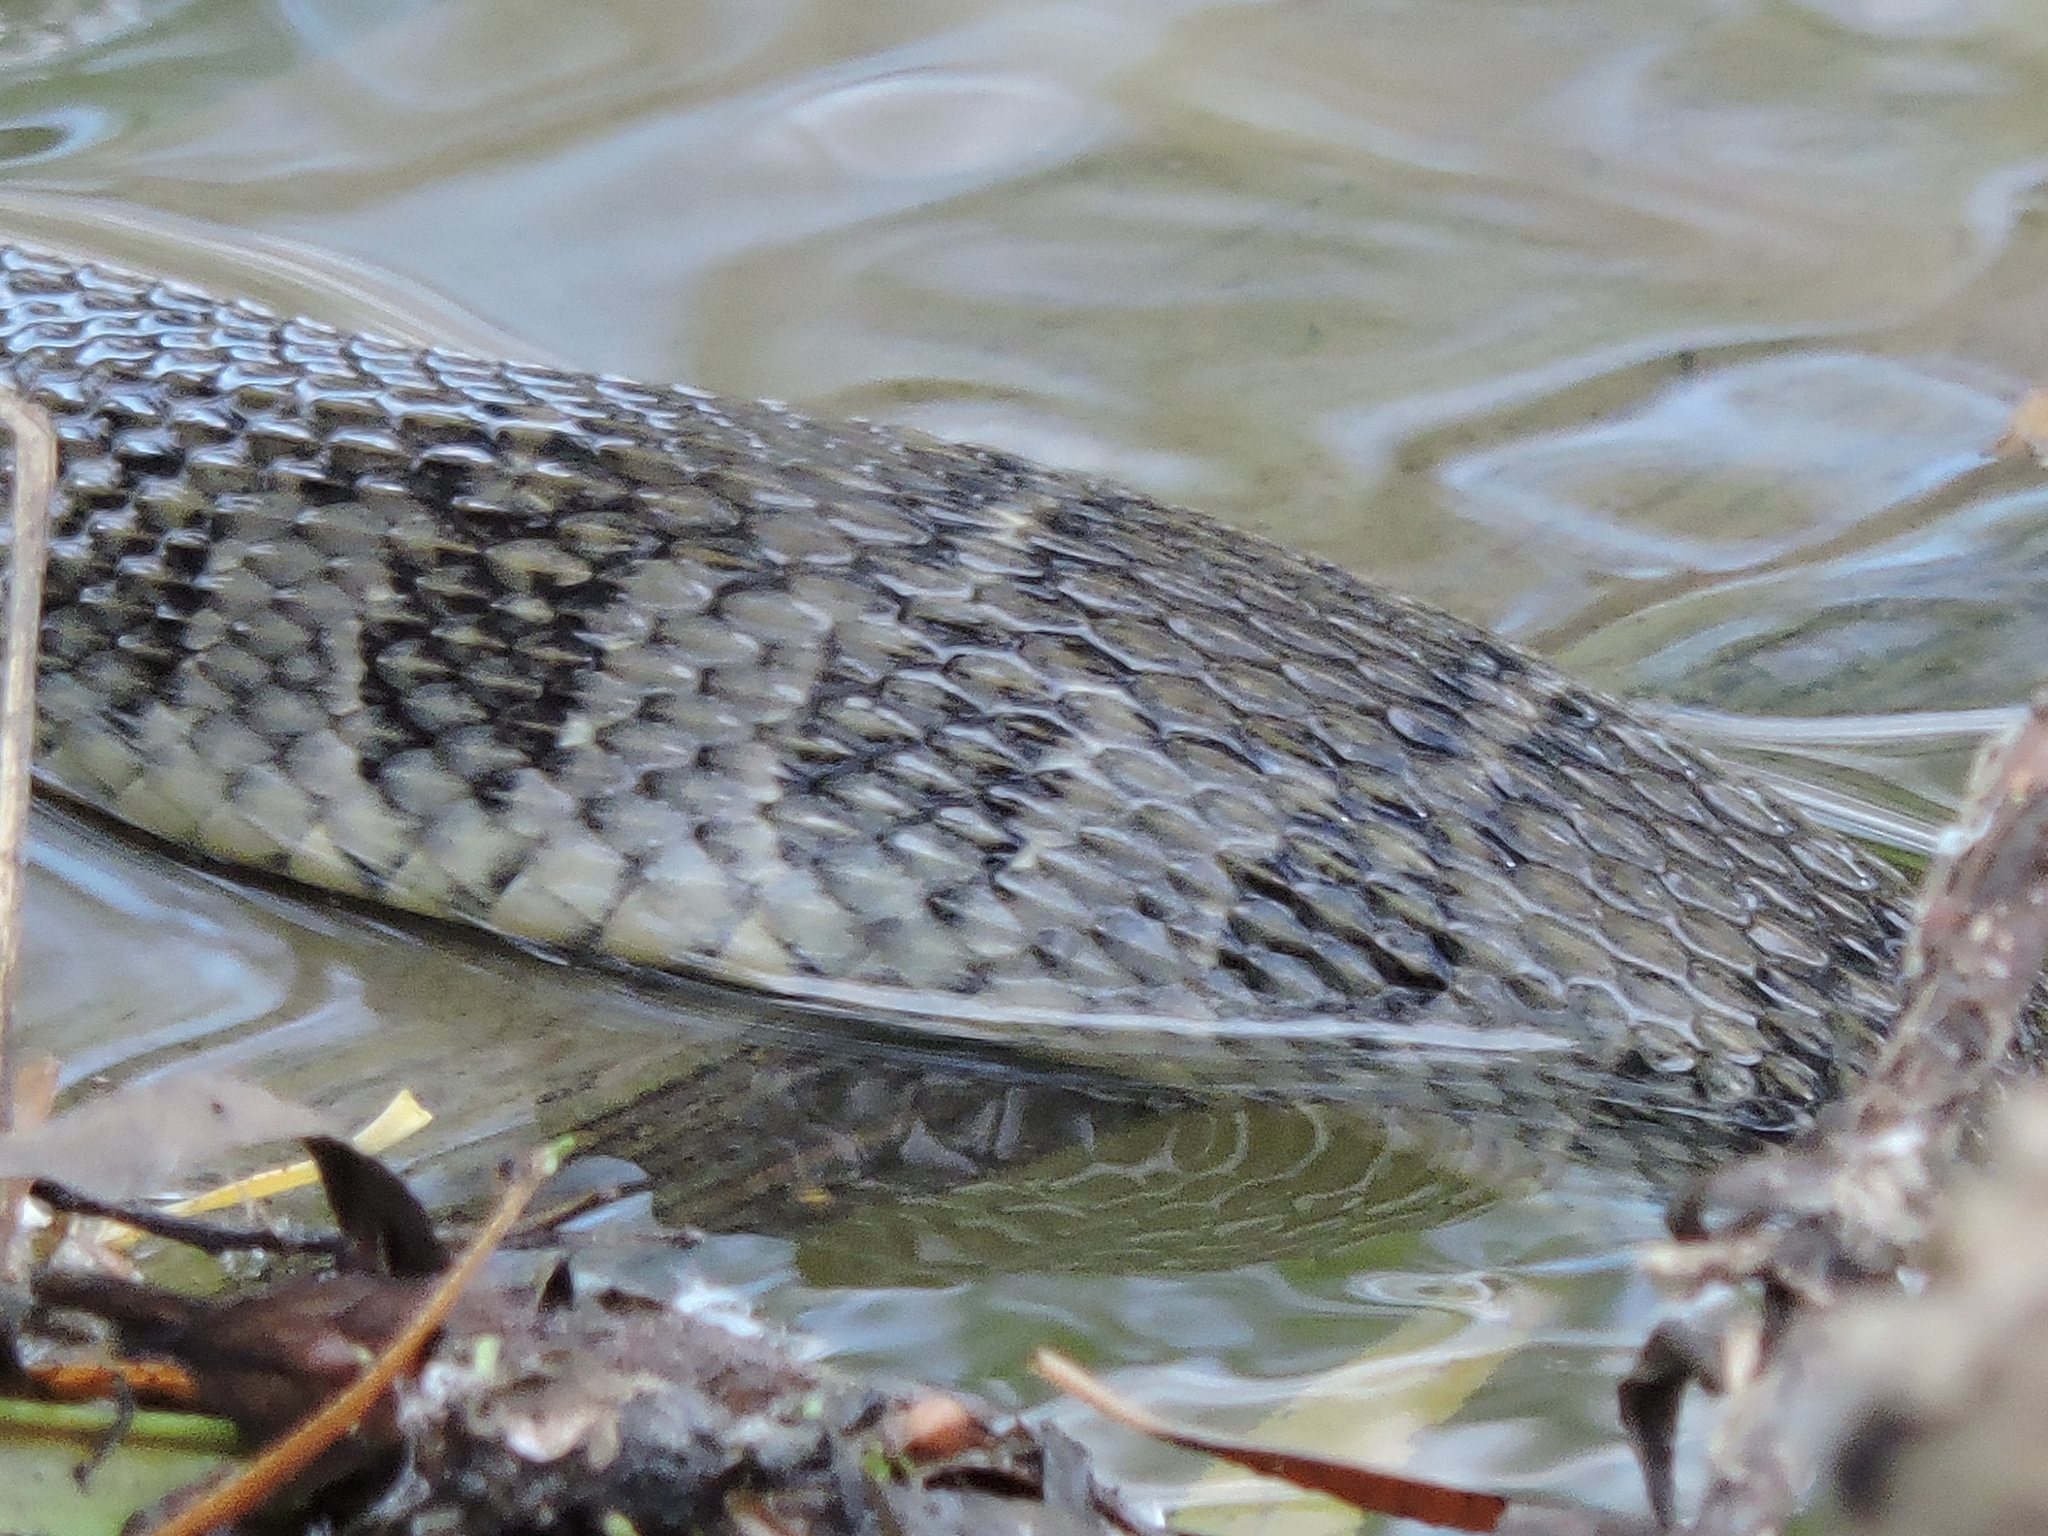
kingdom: Animalia
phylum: Chordata
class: Squamata
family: Colubridae
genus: Nerodia
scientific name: Nerodia erythrogaster
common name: Plainbelly water snake
